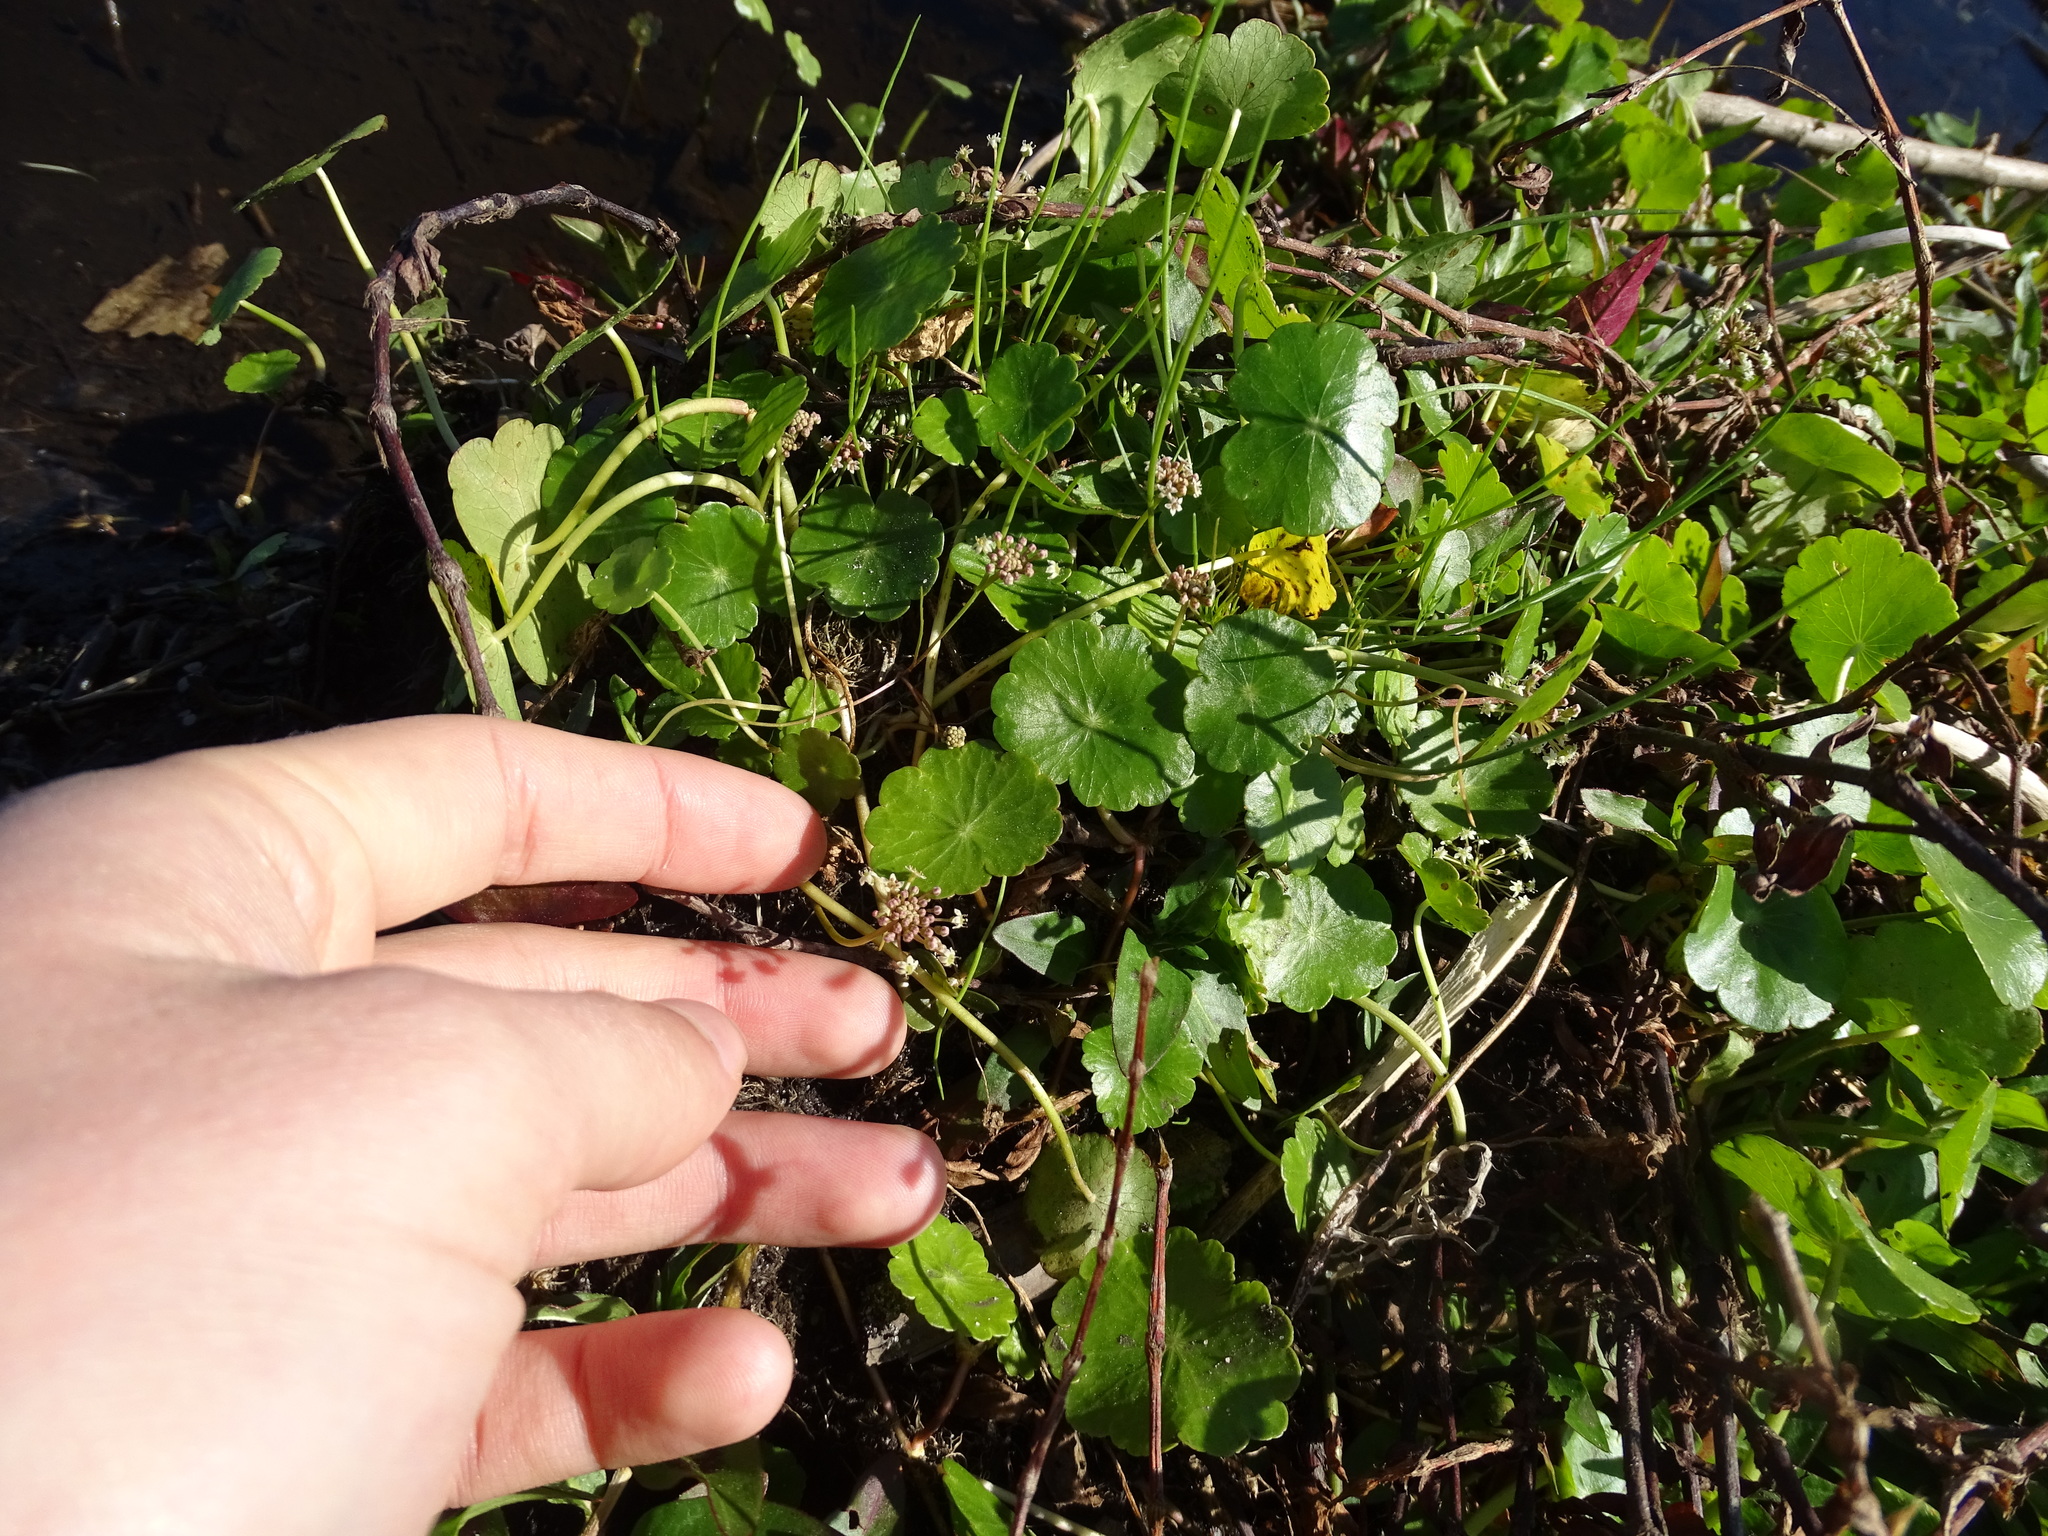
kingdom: Plantae
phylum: Tracheophyta
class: Magnoliopsida
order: Apiales
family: Araliaceae
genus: Hydrocotyle
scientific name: Hydrocotyle umbellata
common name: Water pennywort
